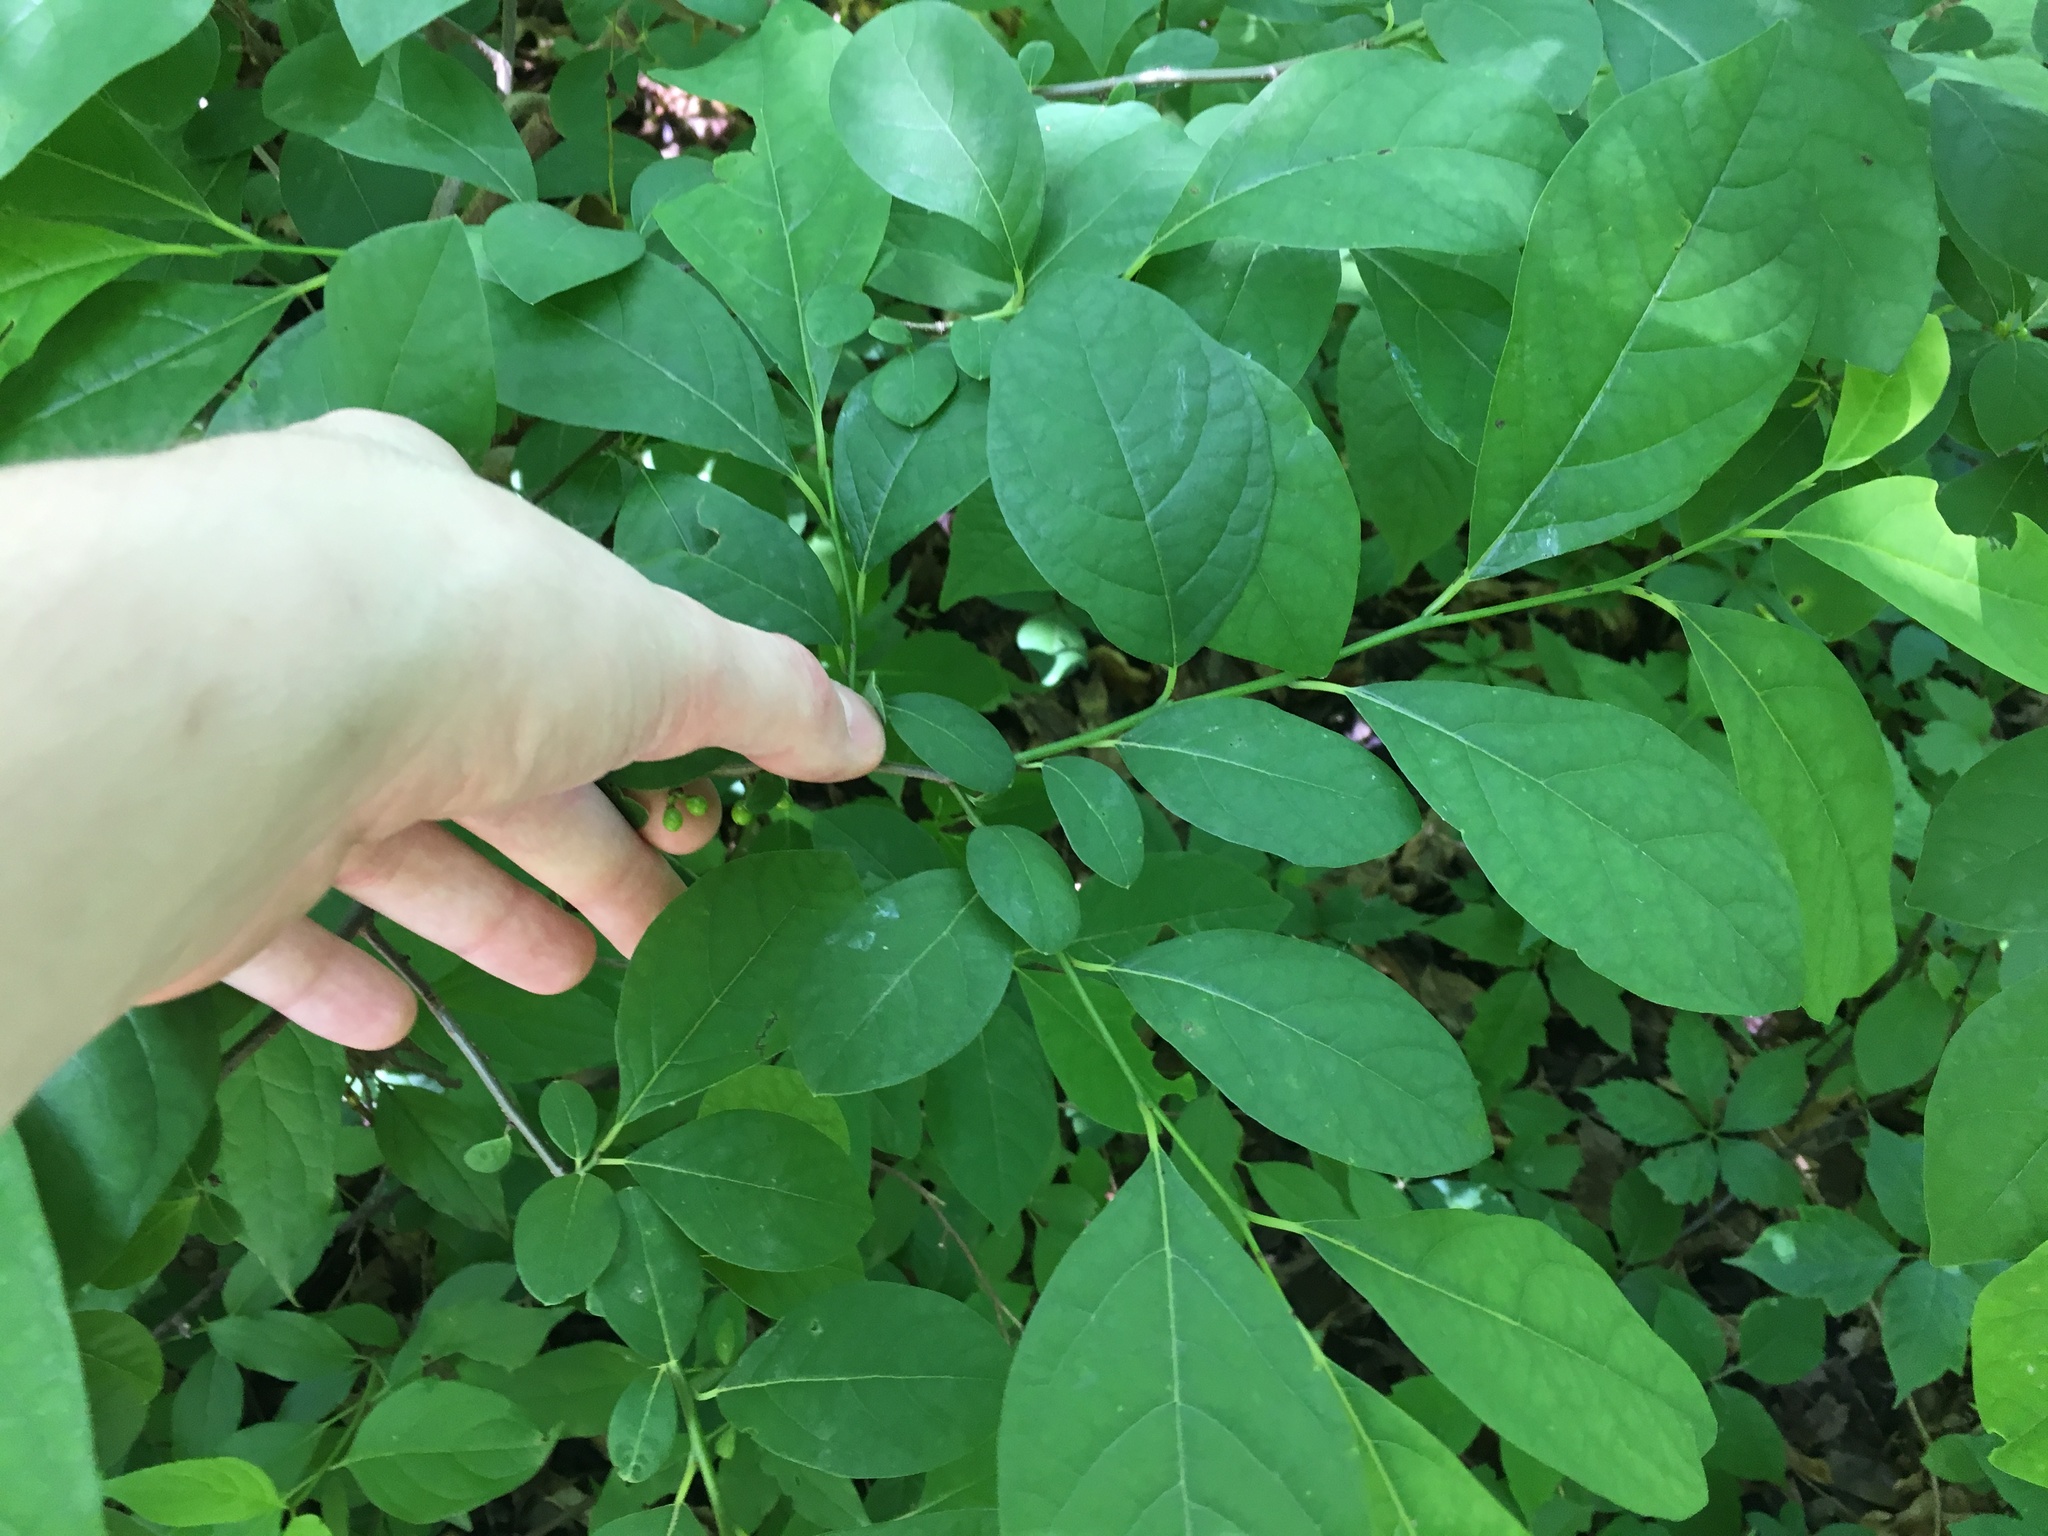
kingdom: Plantae
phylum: Tracheophyta
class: Magnoliopsida
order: Laurales
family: Lauraceae
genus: Lindera
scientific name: Lindera benzoin
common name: Spicebush
